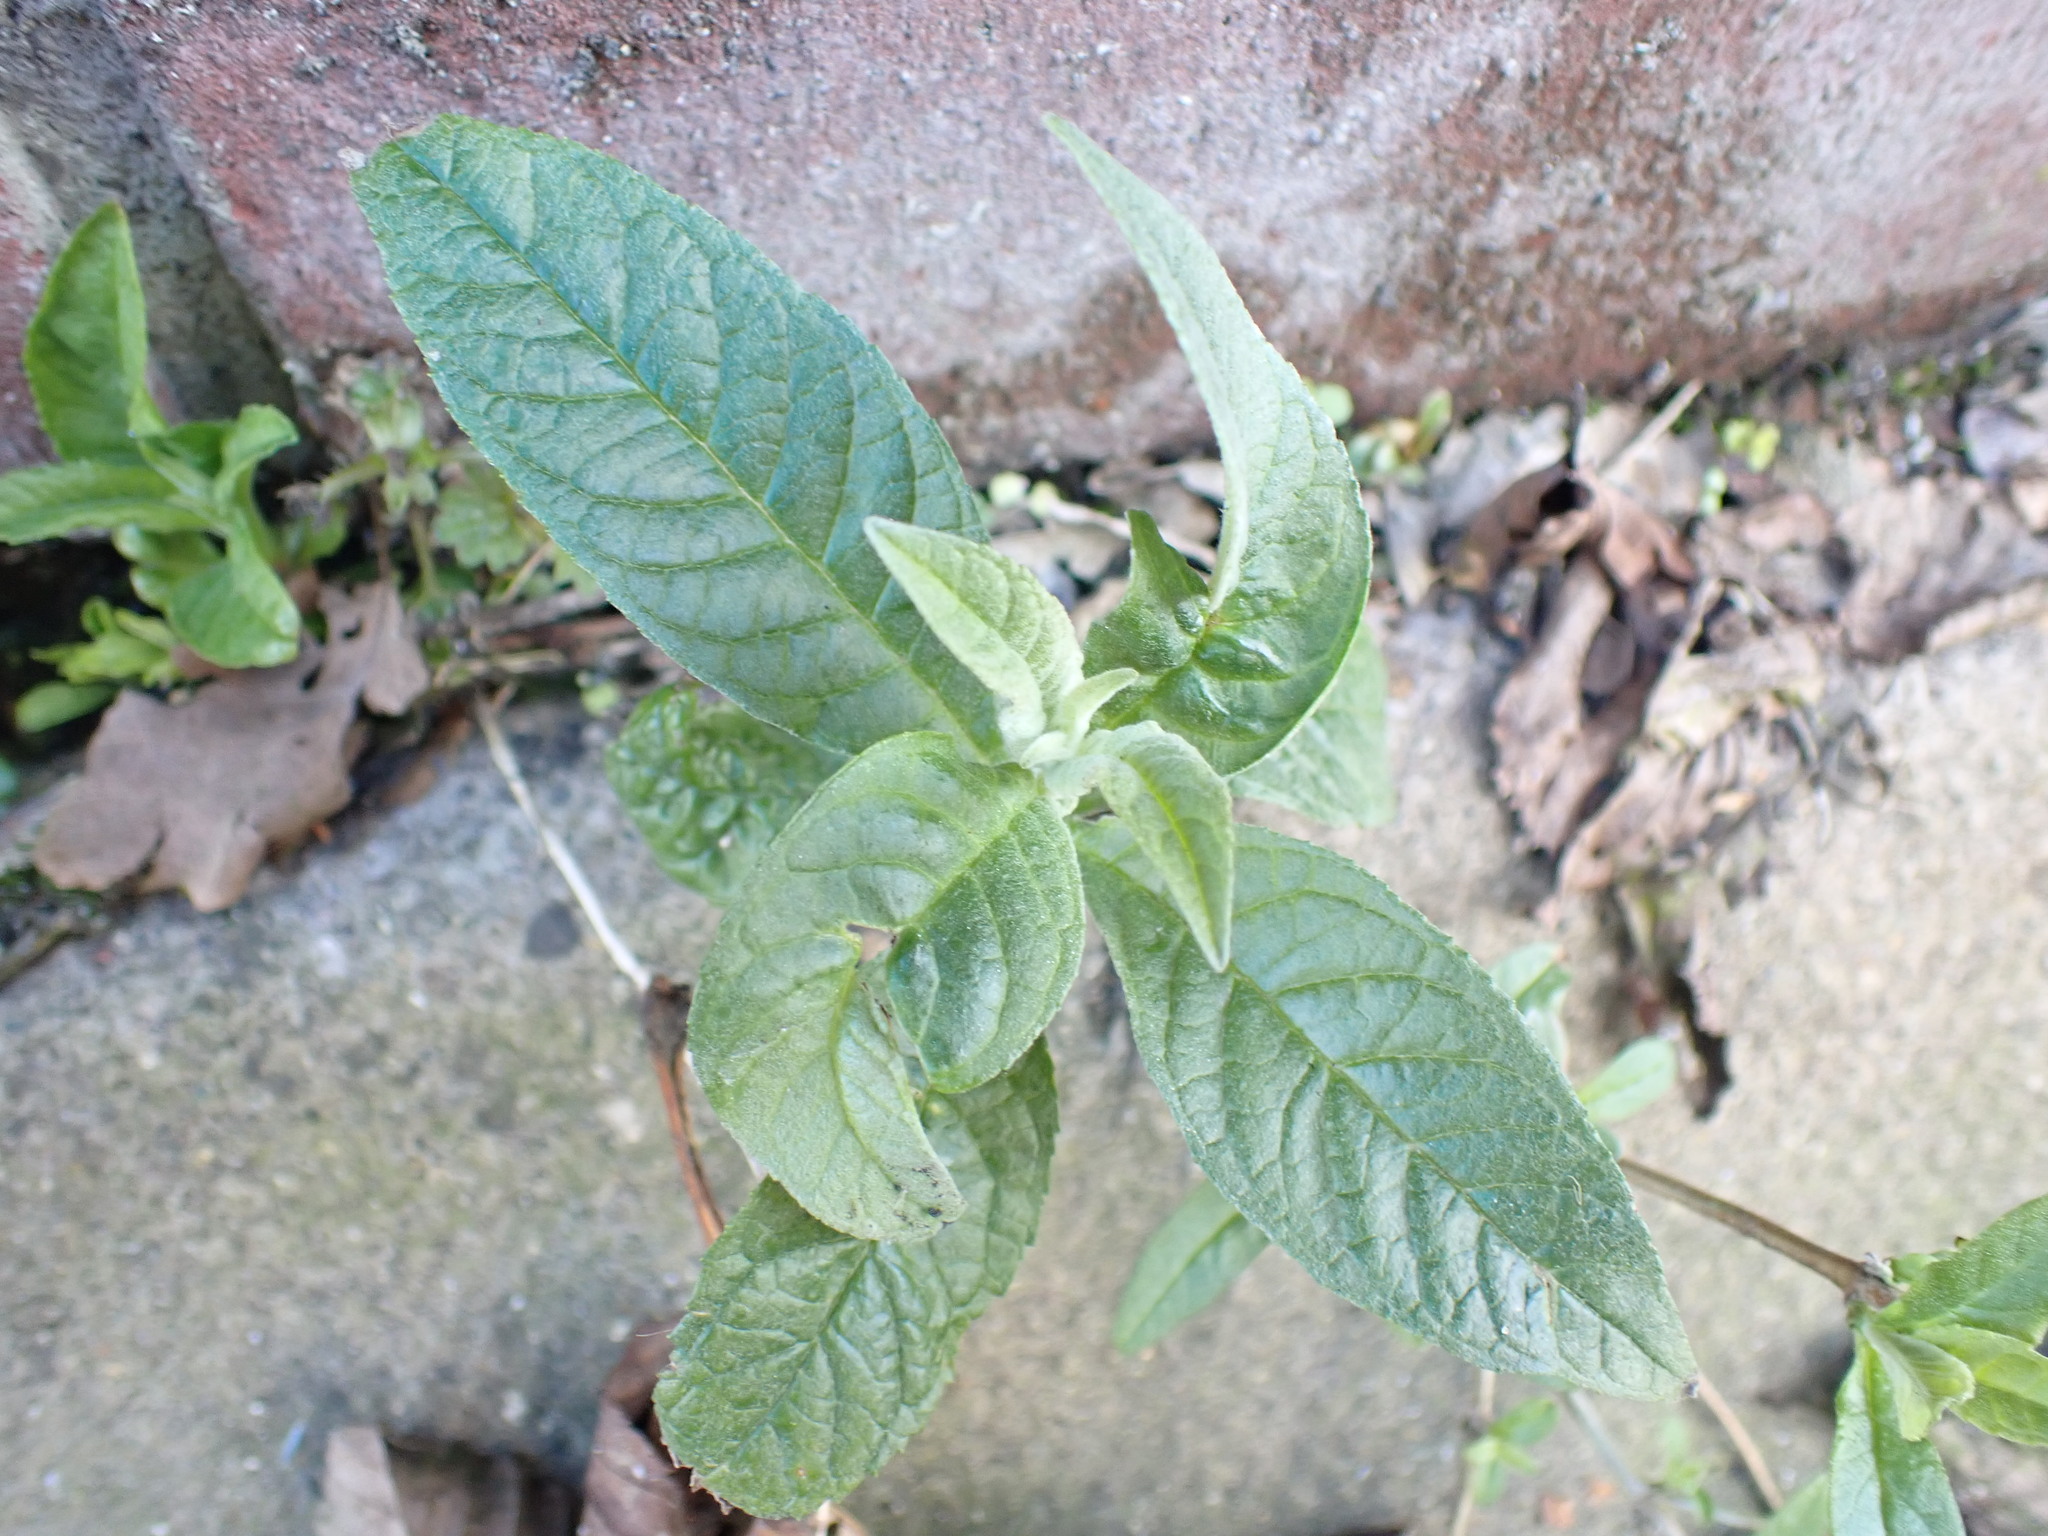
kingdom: Plantae
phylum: Tracheophyta
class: Magnoliopsida
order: Lamiales
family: Scrophulariaceae
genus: Buddleja
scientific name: Buddleja davidii
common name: Butterfly-bush
